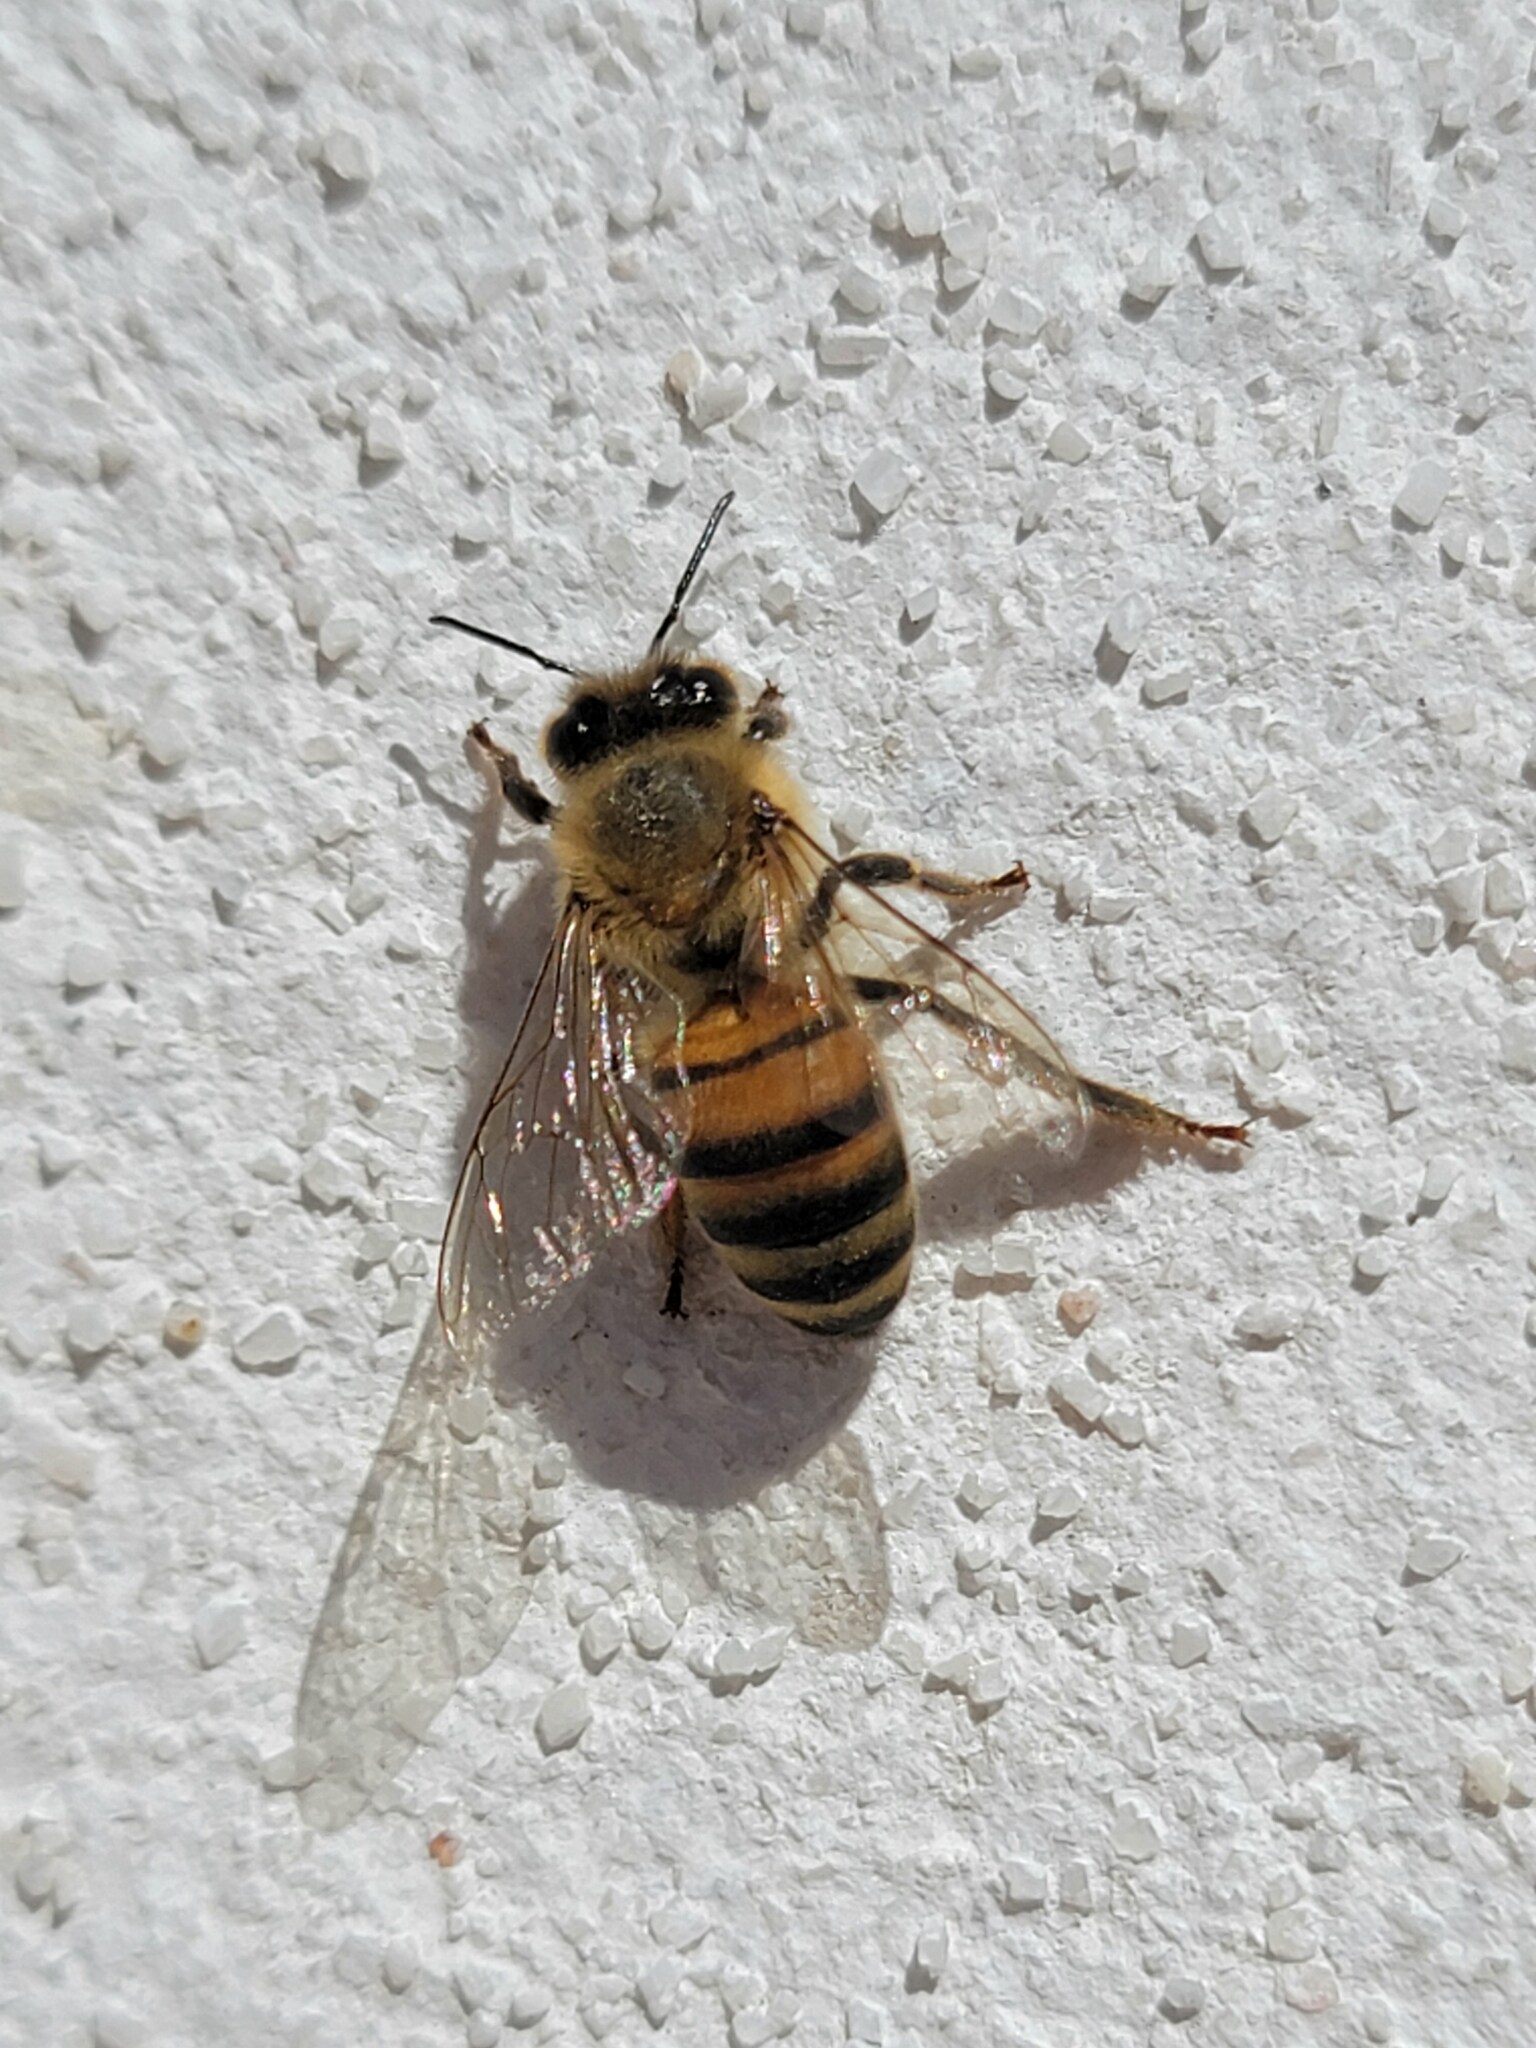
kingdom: Animalia
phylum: Arthropoda
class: Insecta
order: Hymenoptera
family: Apidae
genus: Apis
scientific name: Apis mellifera
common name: Honey bee
